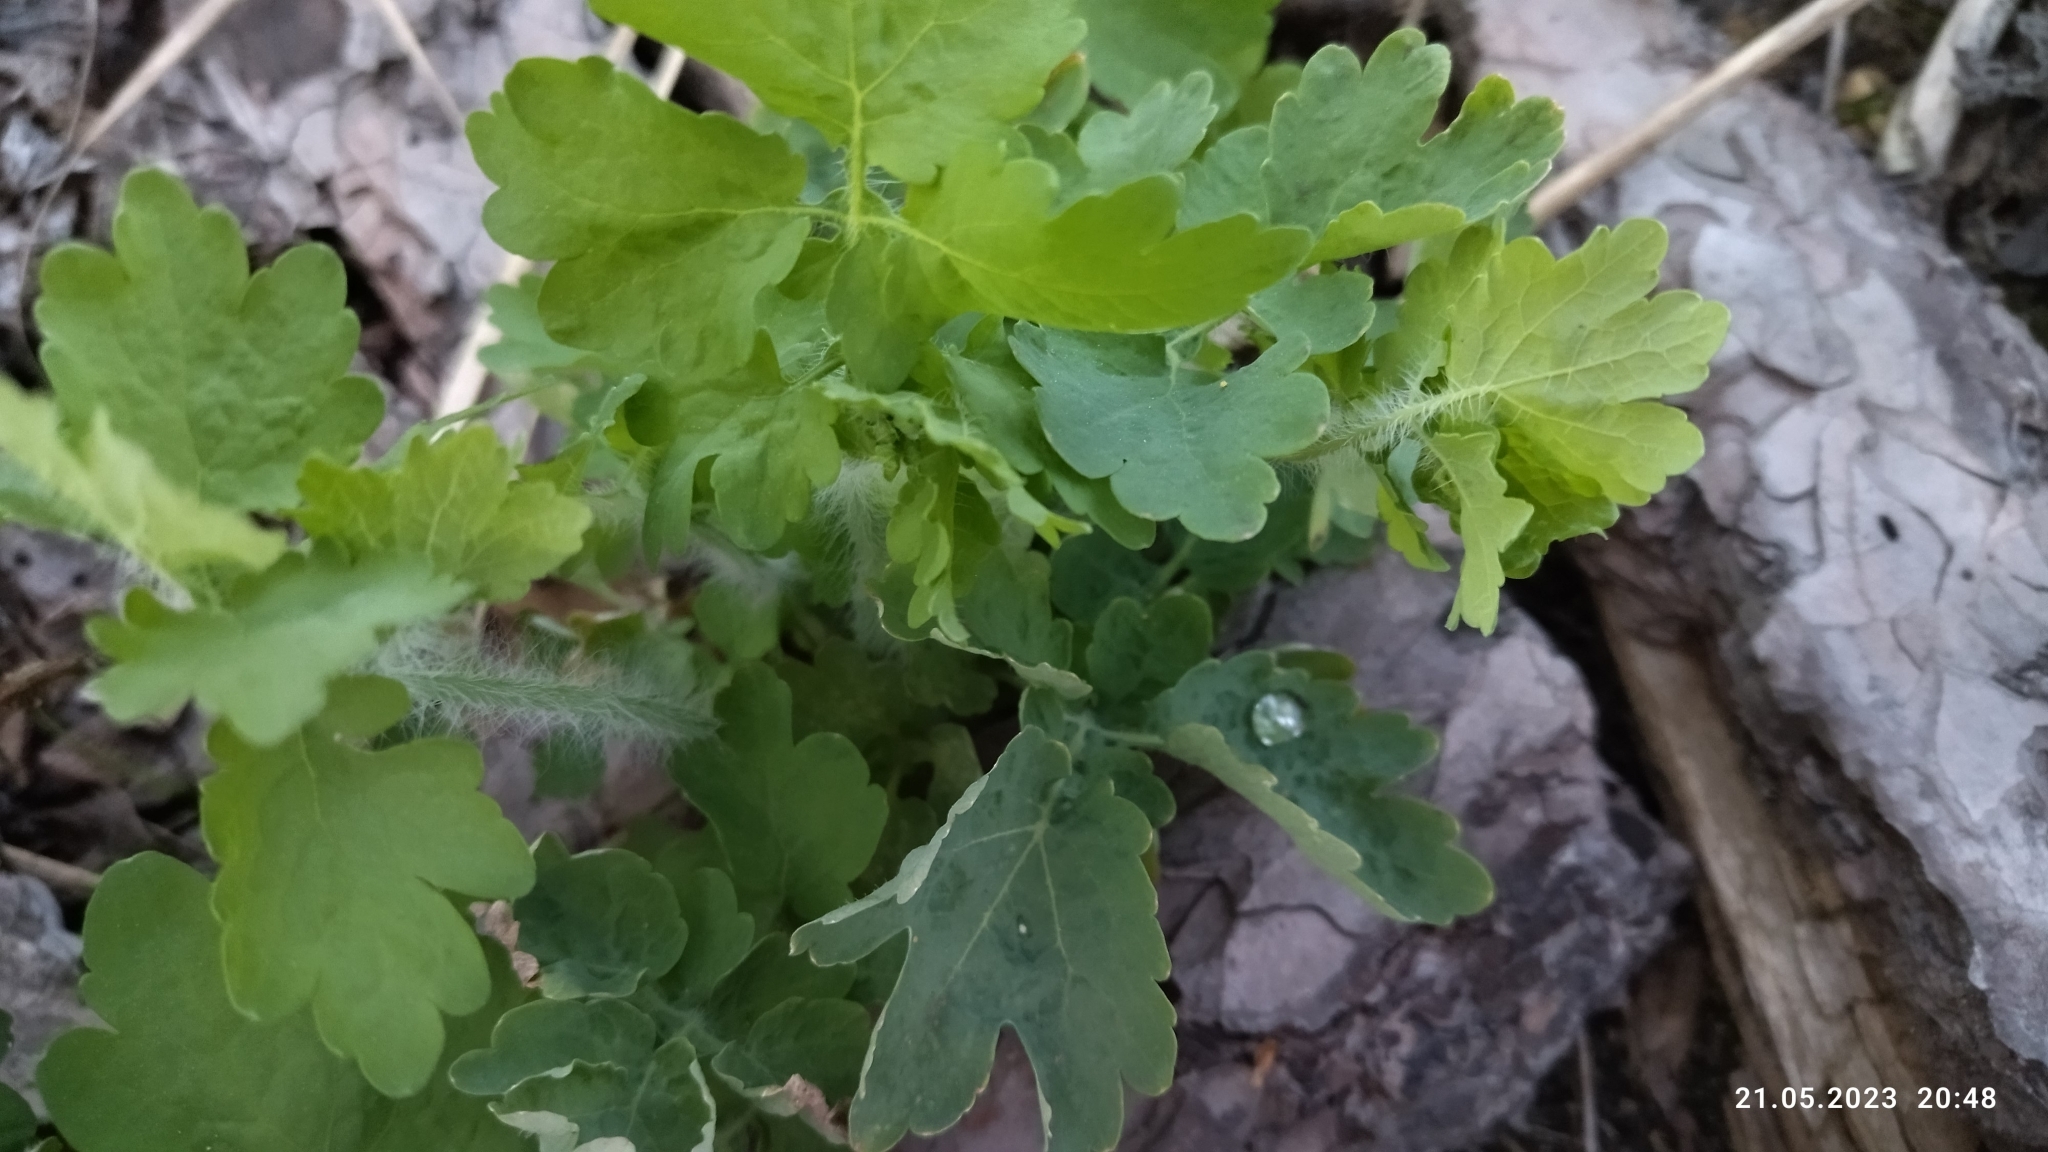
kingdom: Plantae
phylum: Tracheophyta
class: Magnoliopsida
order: Ranunculales
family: Papaveraceae
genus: Chelidonium
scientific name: Chelidonium majus
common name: Greater celandine
